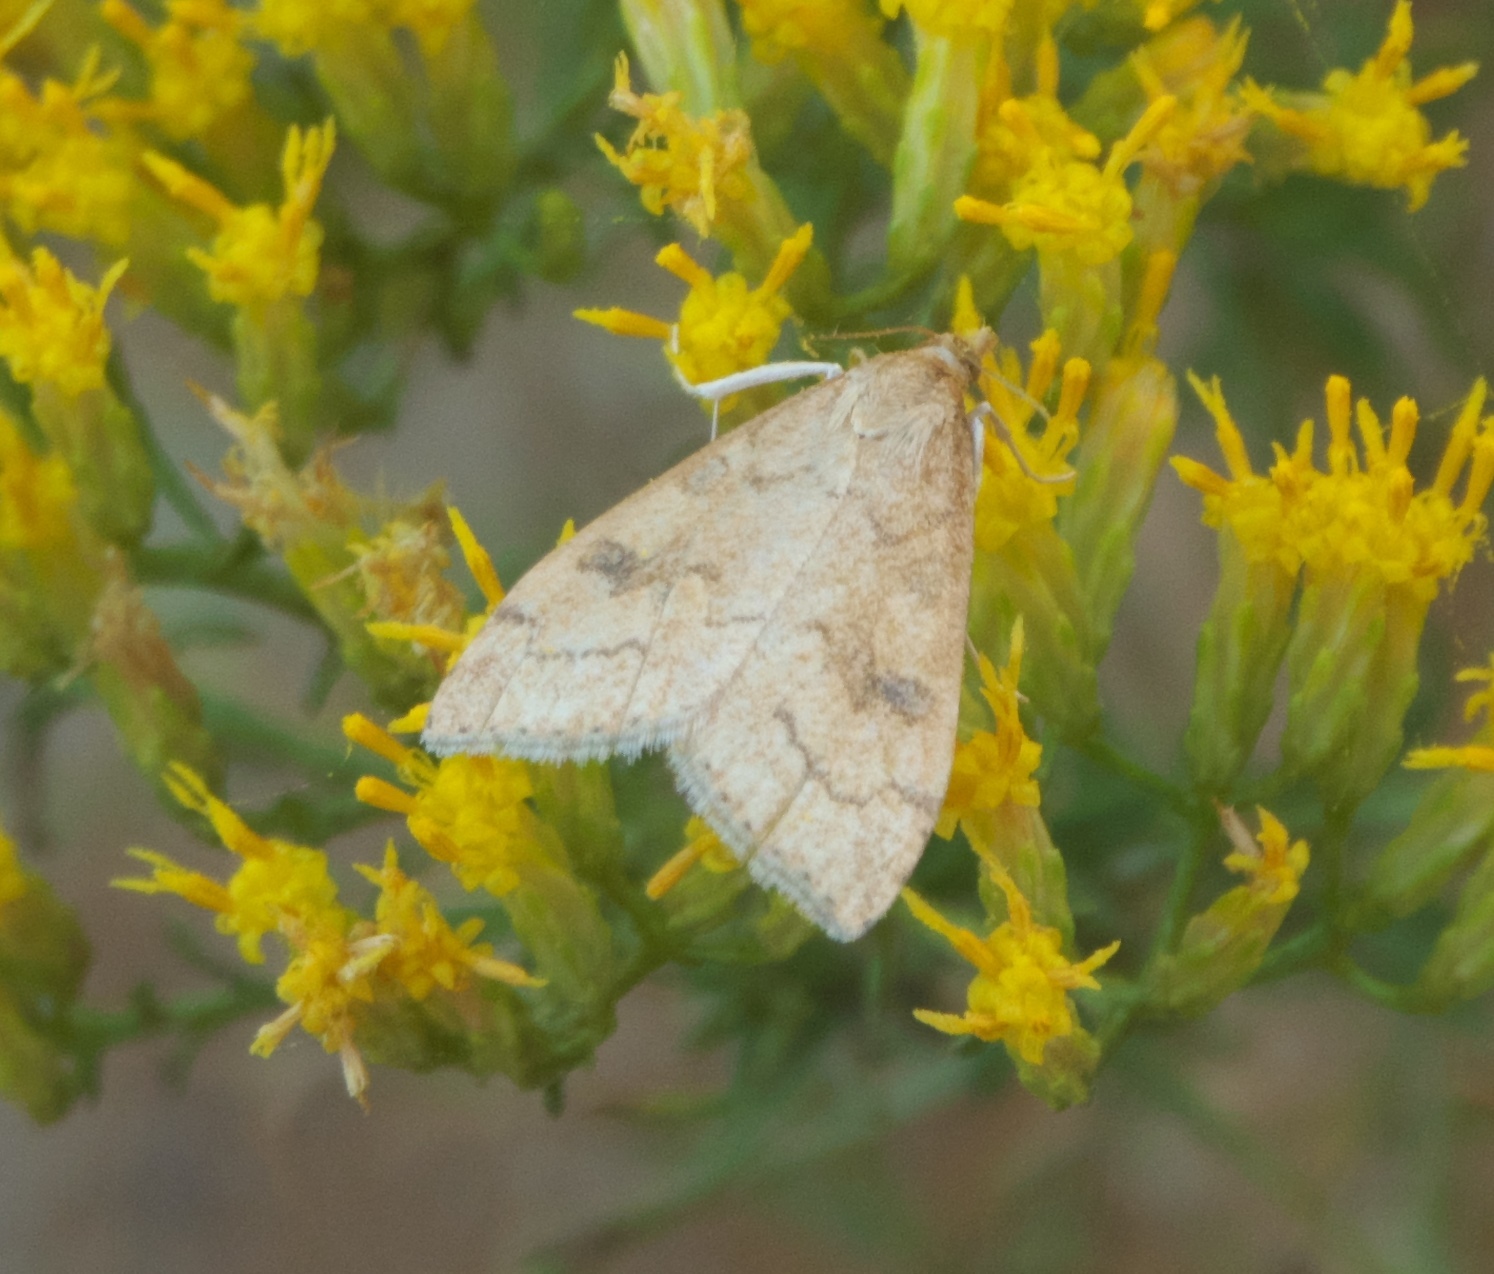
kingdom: Animalia
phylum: Arthropoda
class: Insecta
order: Lepidoptera
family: Crambidae
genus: Udea
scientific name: Udea rubigalis
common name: Celery leaftier moth
